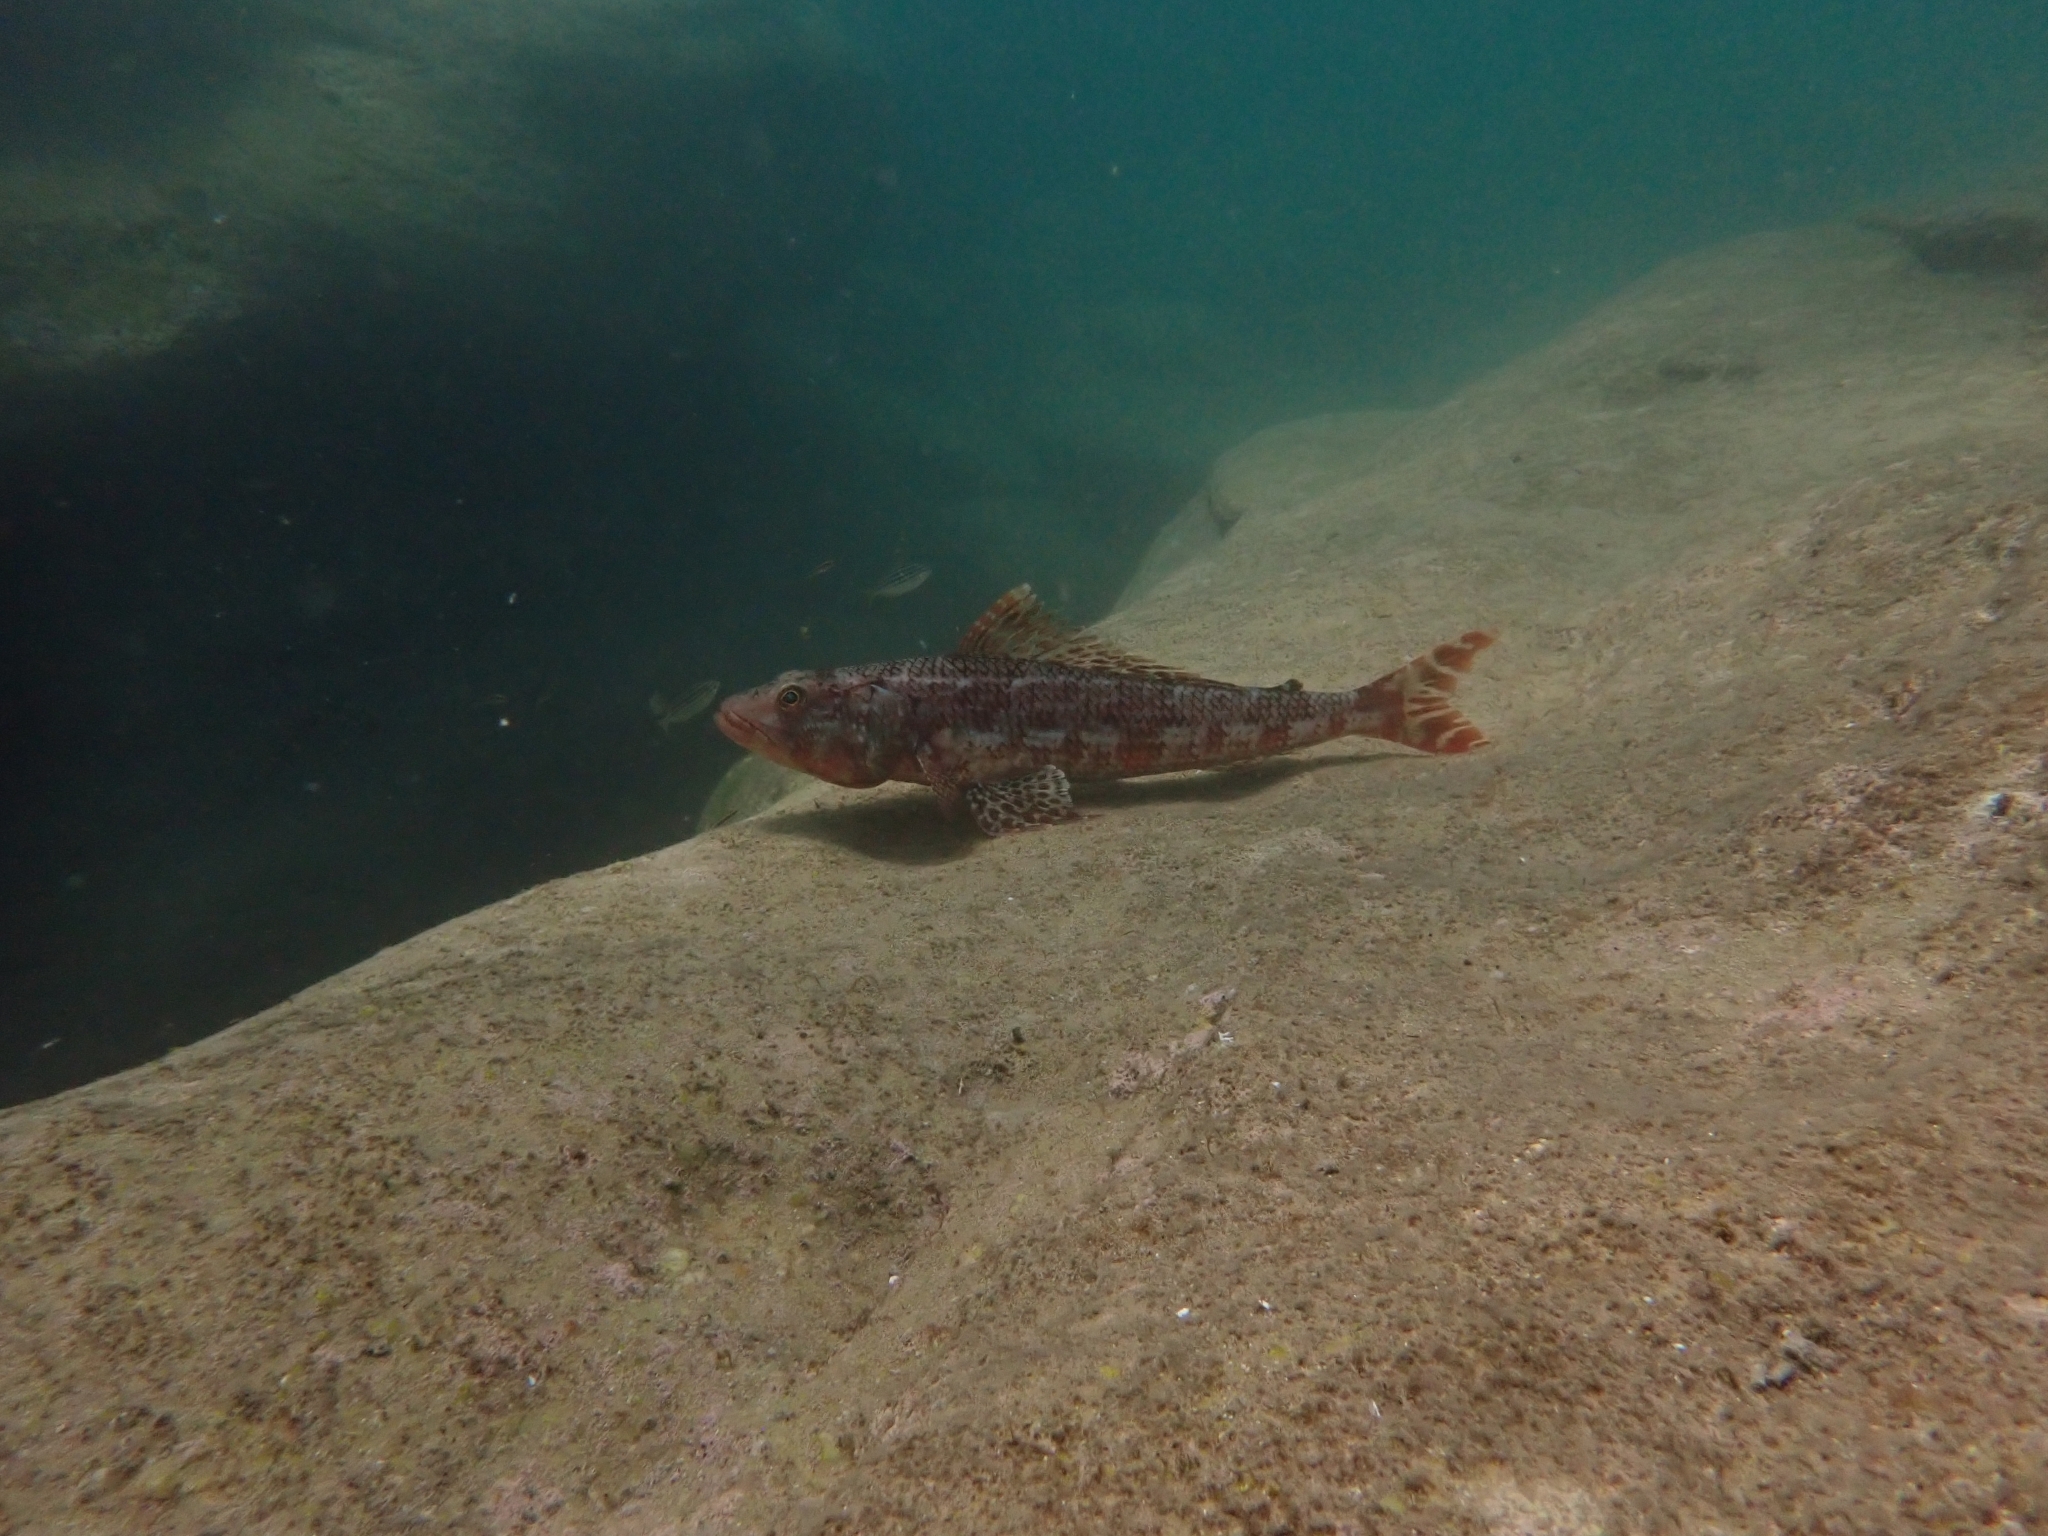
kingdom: Animalia
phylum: Chordata
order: Aulopiformes
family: Aulopidae
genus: Latropiscis
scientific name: Latropiscis purpurissatus
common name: Sergeant baker
